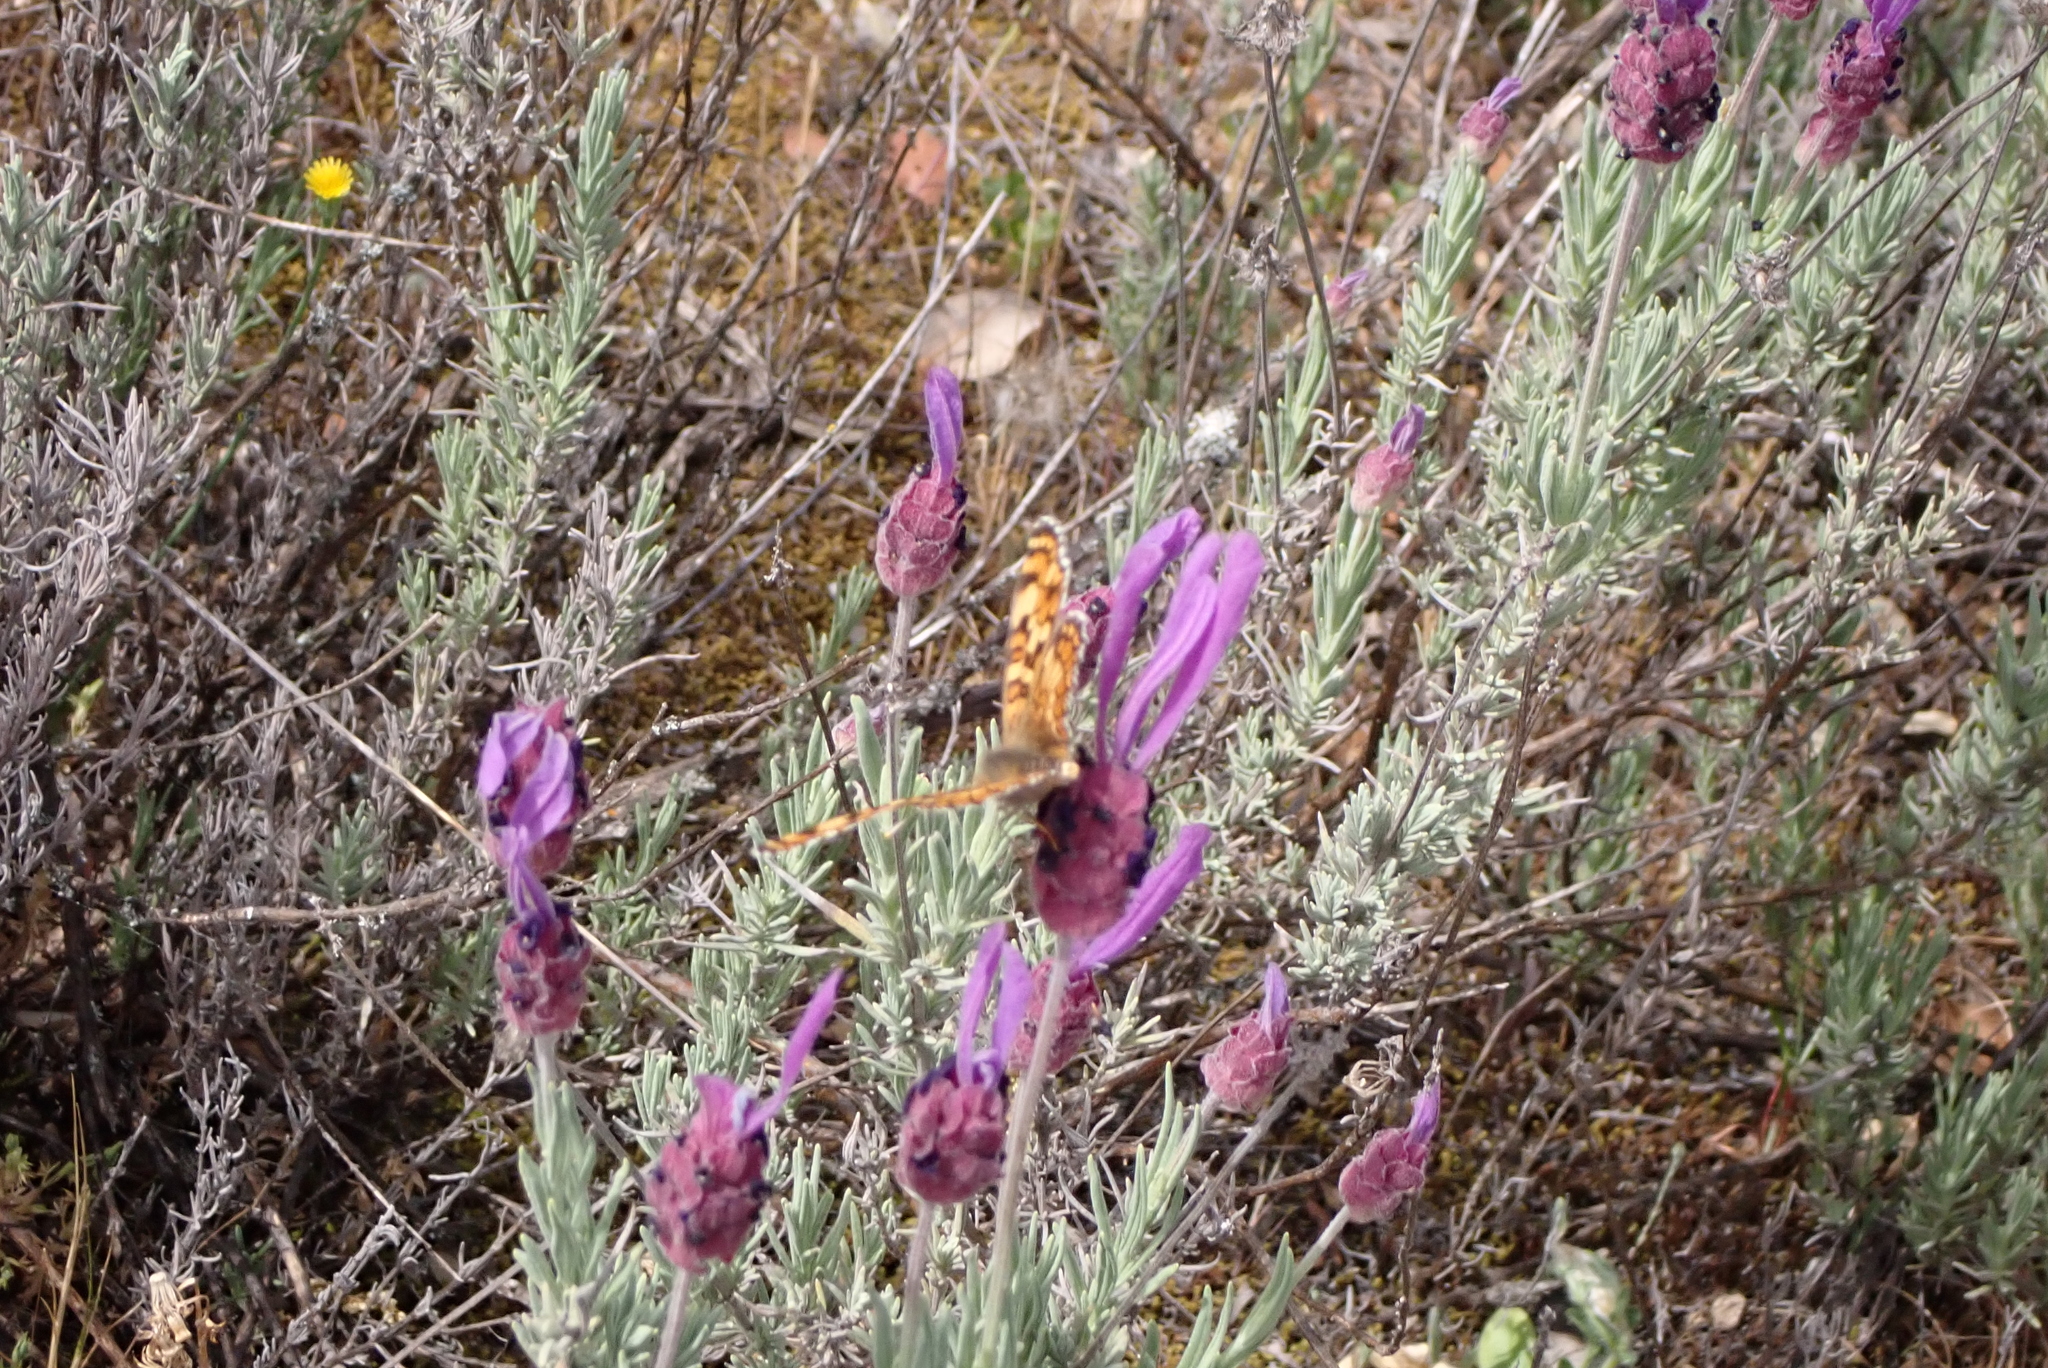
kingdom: Plantae
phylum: Tracheophyta
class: Magnoliopsida
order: Lamiales
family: Lamiaceae
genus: Lavandula
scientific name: Lavandula pedunculata
